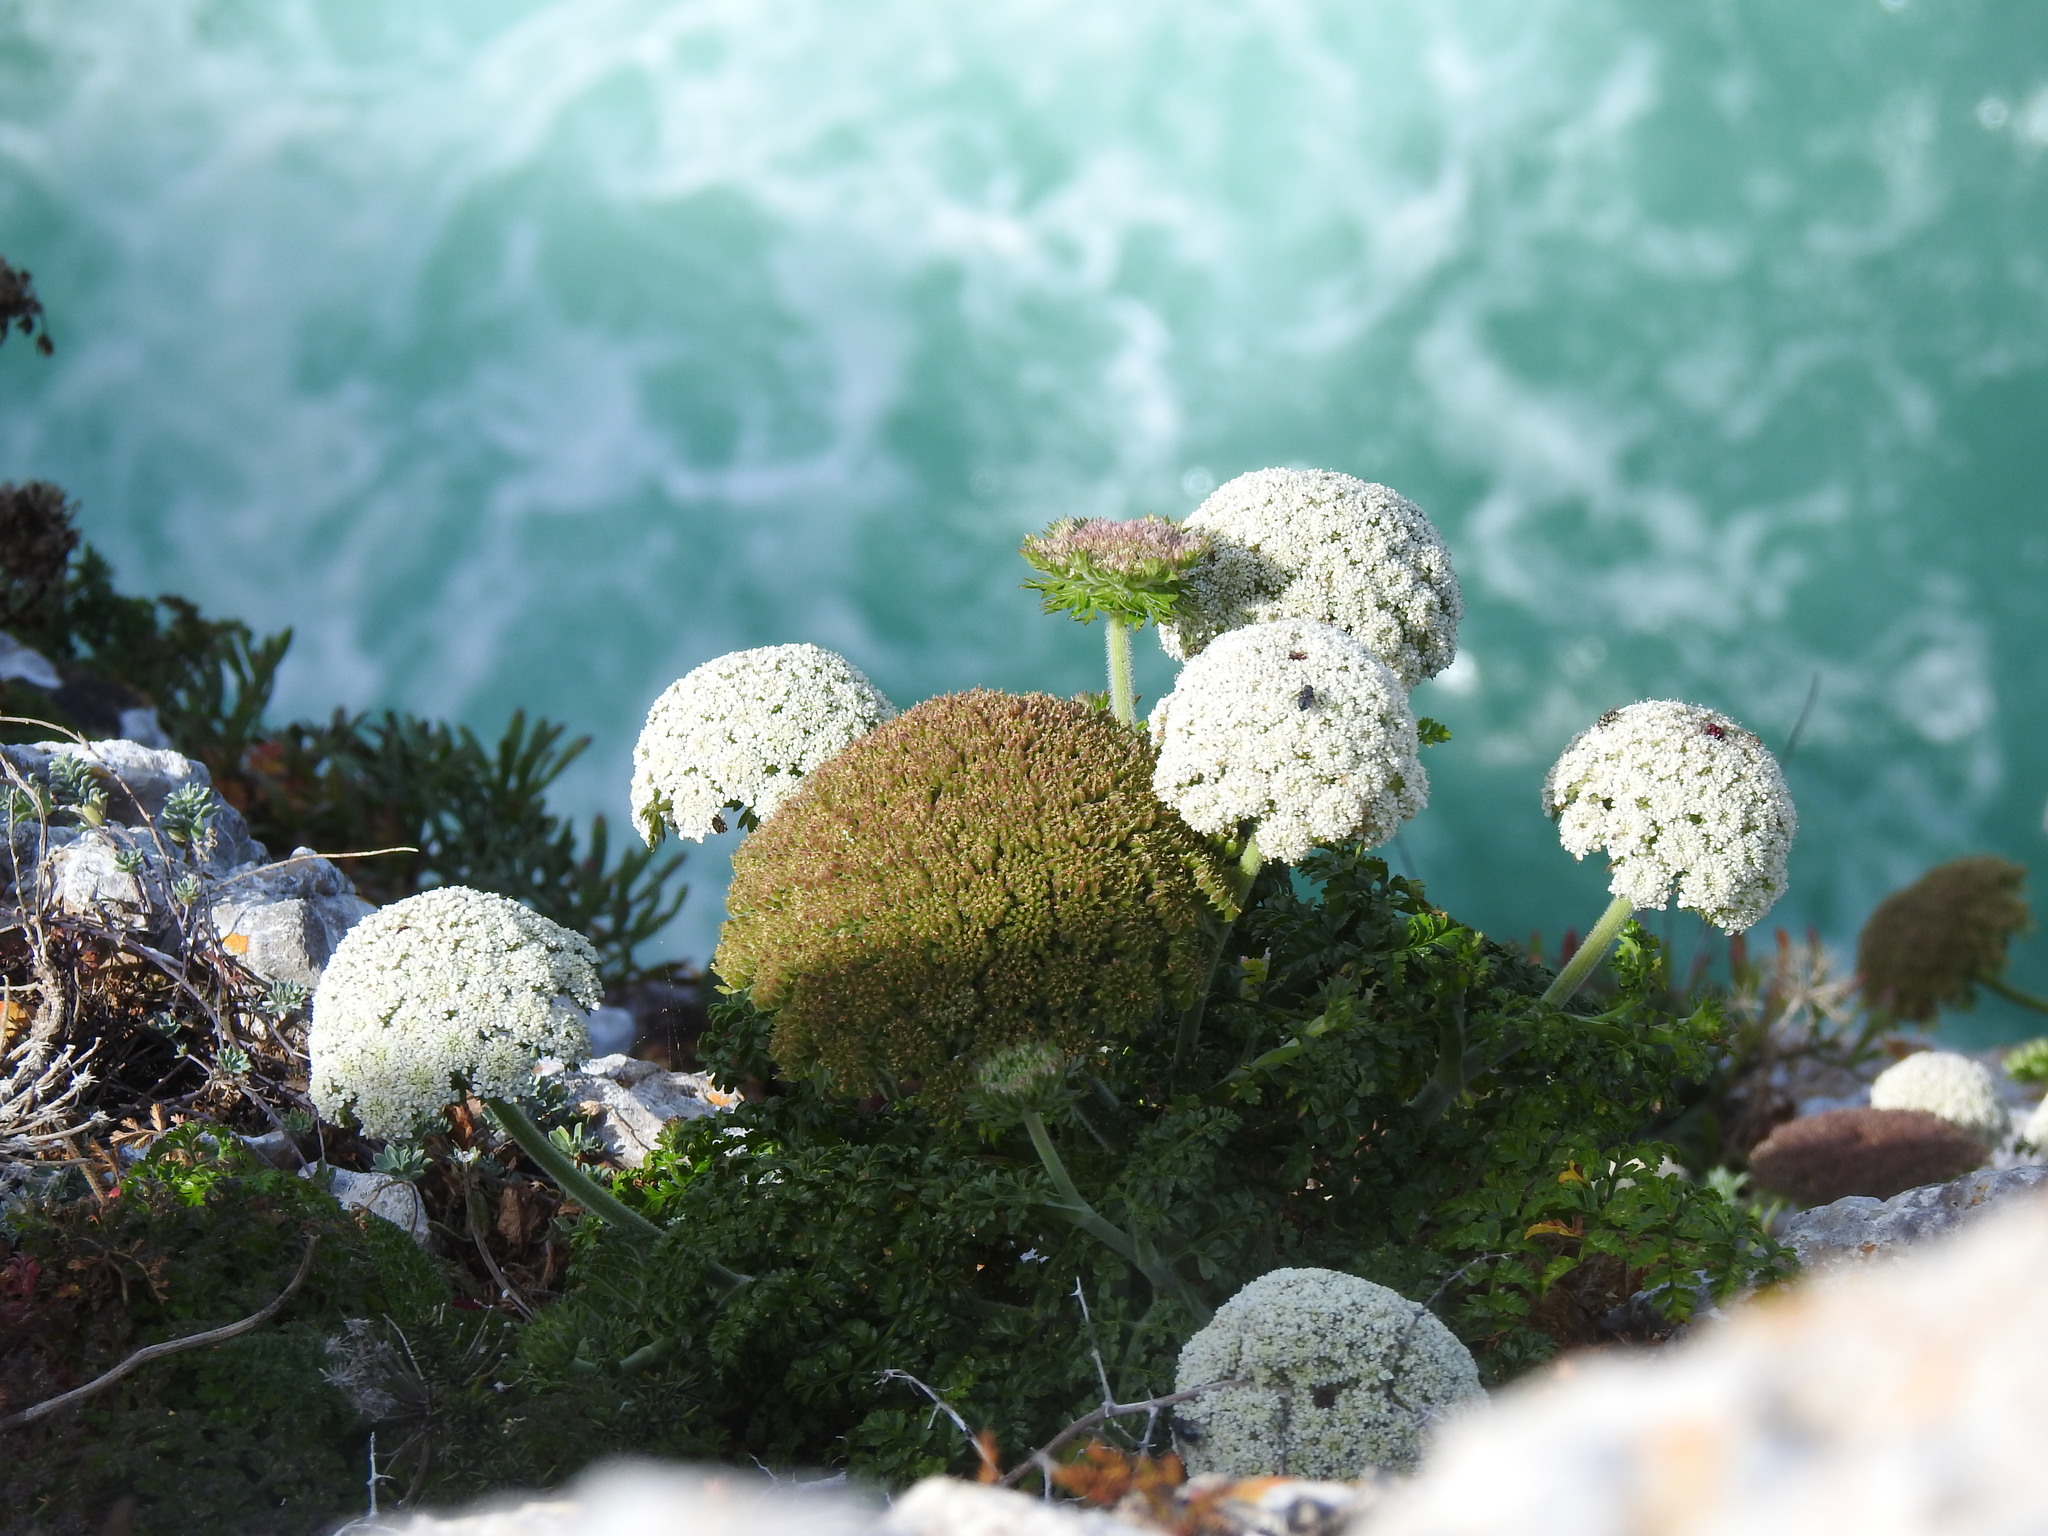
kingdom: Plantae
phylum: Tracheophyta
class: Magnoliopsida
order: Apiales
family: Apiaceae
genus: Daucus
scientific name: Daucus carota
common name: Wild carrot
